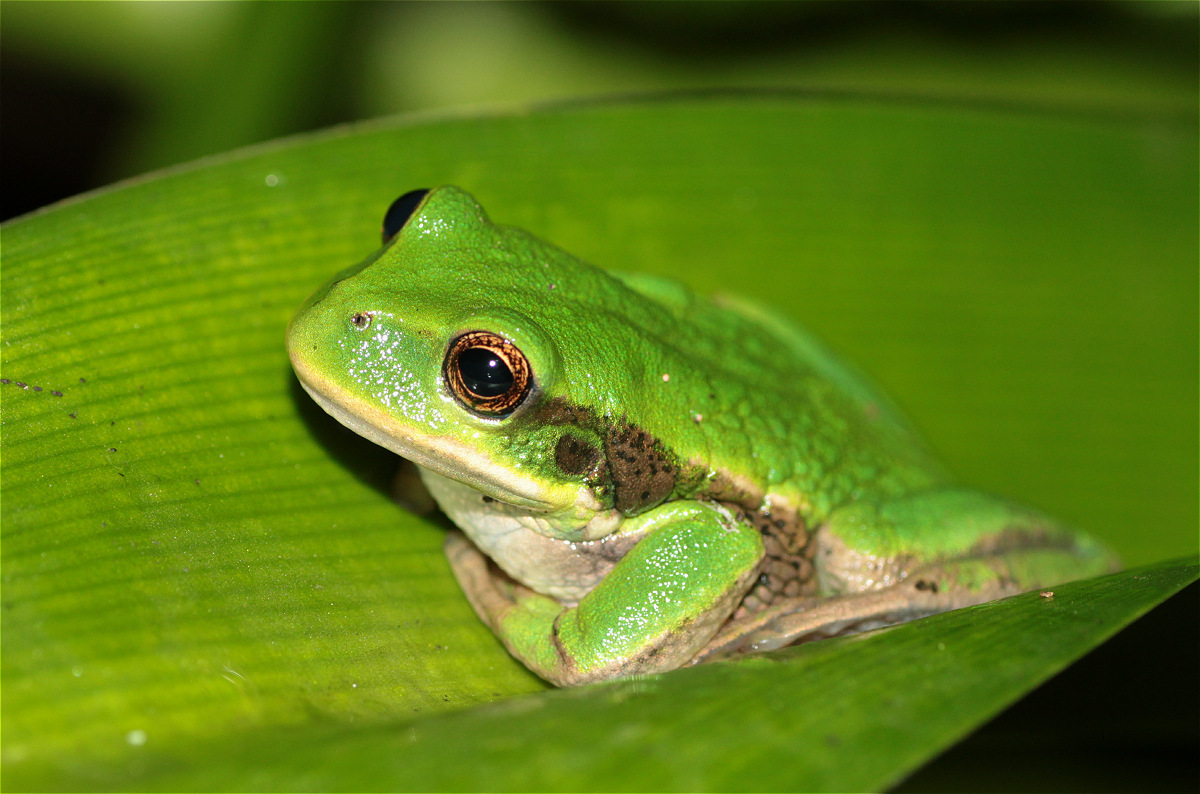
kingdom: Animalia
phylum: Chordata
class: Amphibia
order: Anura
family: Hemiphractidae
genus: Gastrotheca
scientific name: Gastrotheca cuencana
